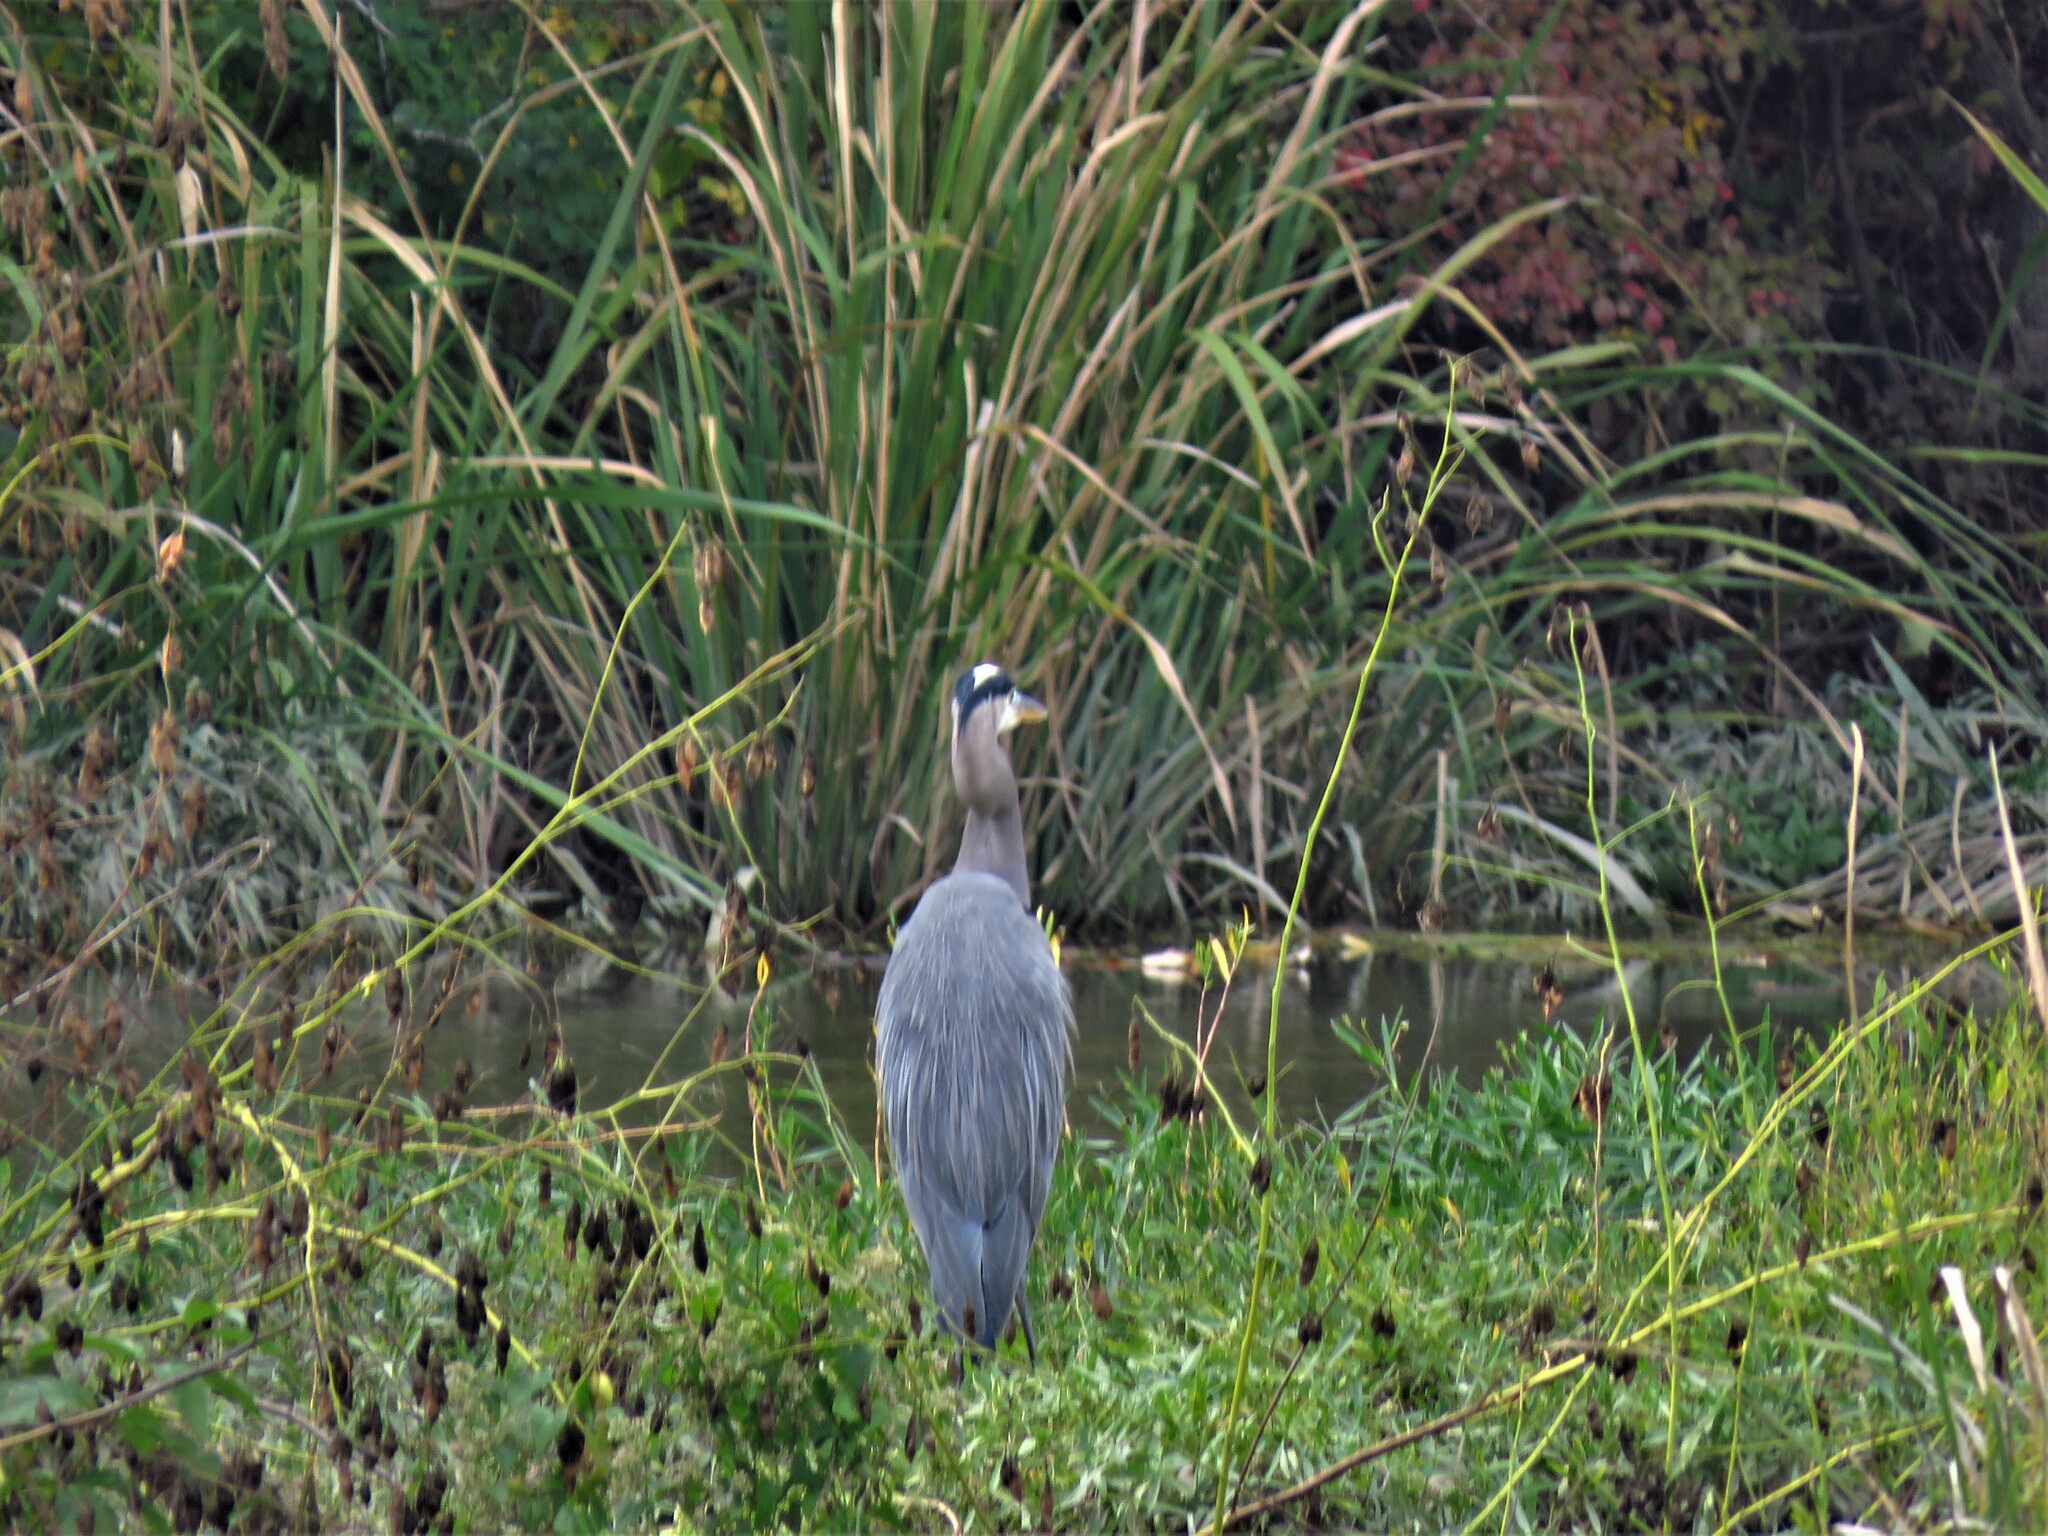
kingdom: Animalia
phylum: Chordata
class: Aves
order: Pelecaniformes
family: Ardeidae
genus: Ardea
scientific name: Ardea herodias
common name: Great blue heron
